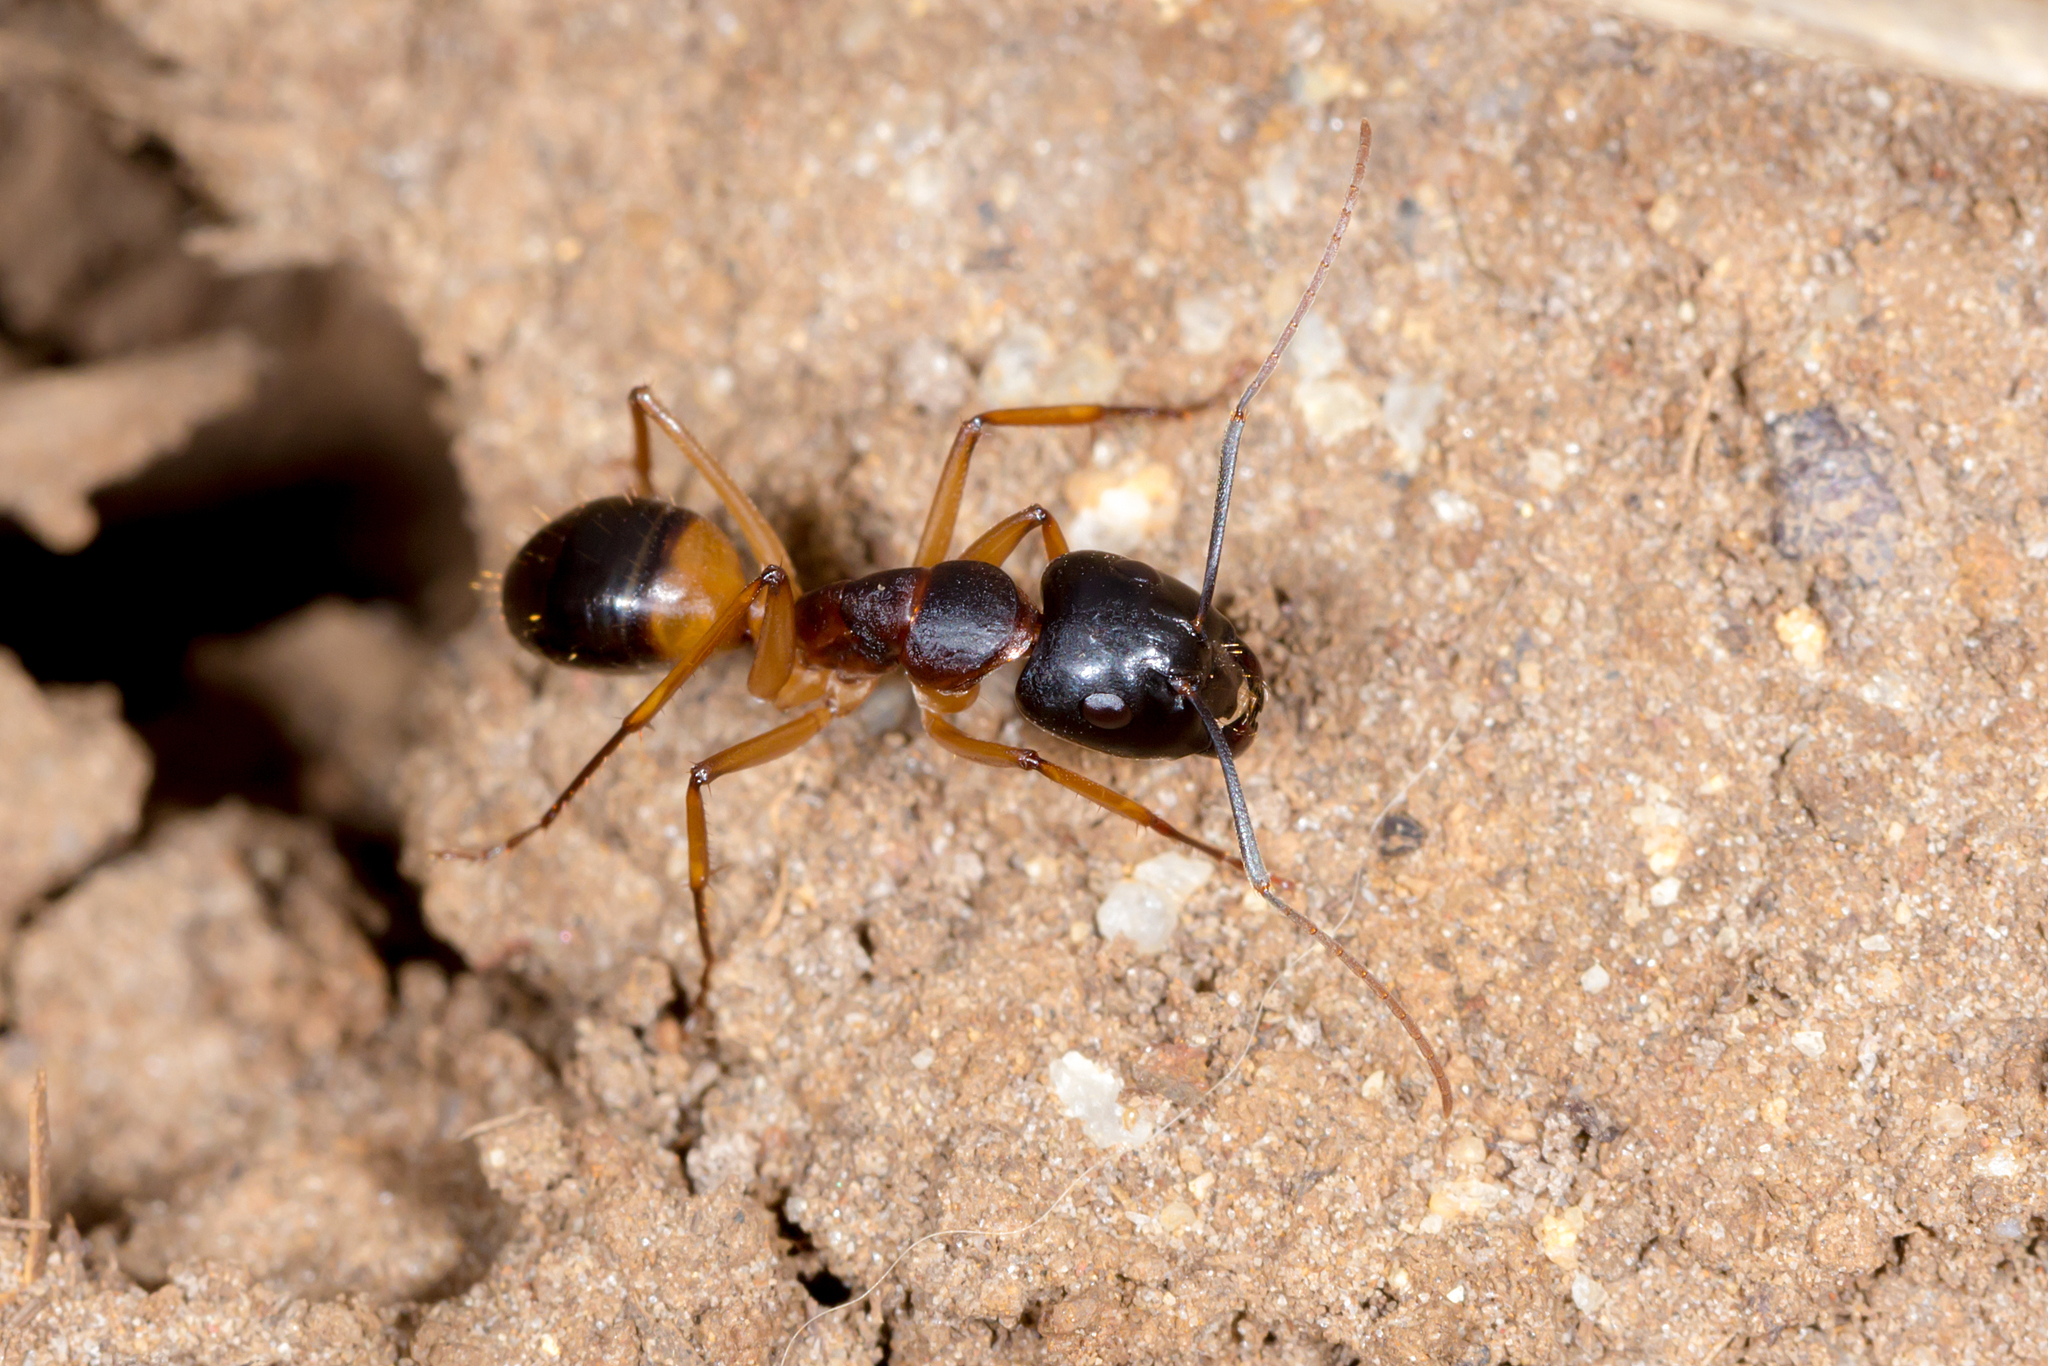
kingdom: Animalia
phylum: Arthropoda
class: Insecta
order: Hymenoptera
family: Formicidae
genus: Camponotus
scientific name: Camponotus consobrinus
